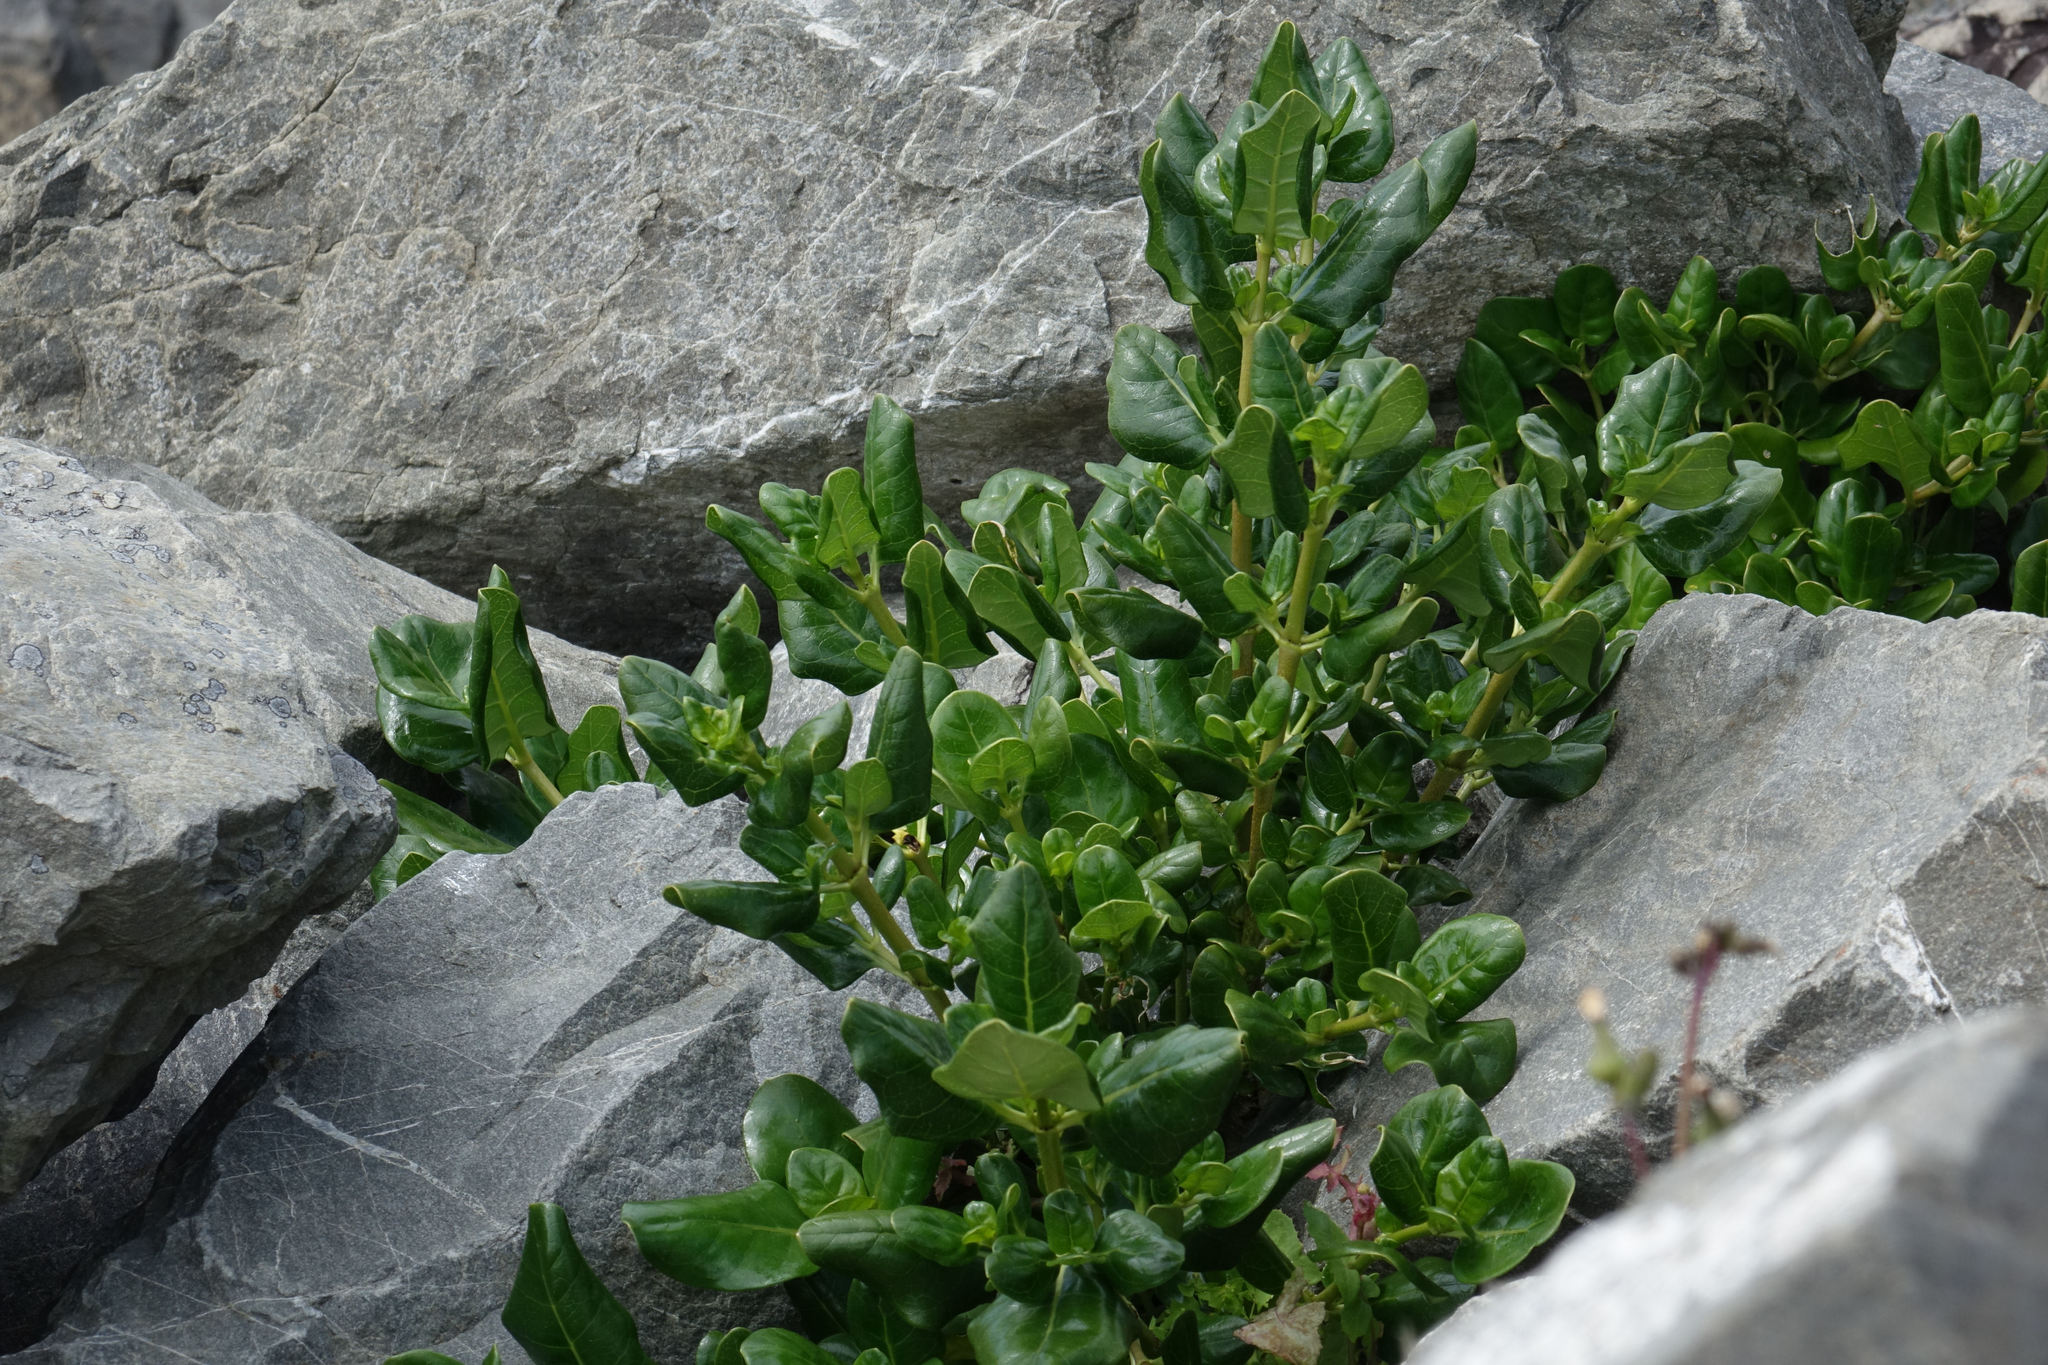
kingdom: Plantae
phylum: Tracheophyta
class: Magnoliopsida
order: Gentianales
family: Rubiaceae
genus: Coprosma
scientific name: Coprosma repens
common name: Tree bedstraw
